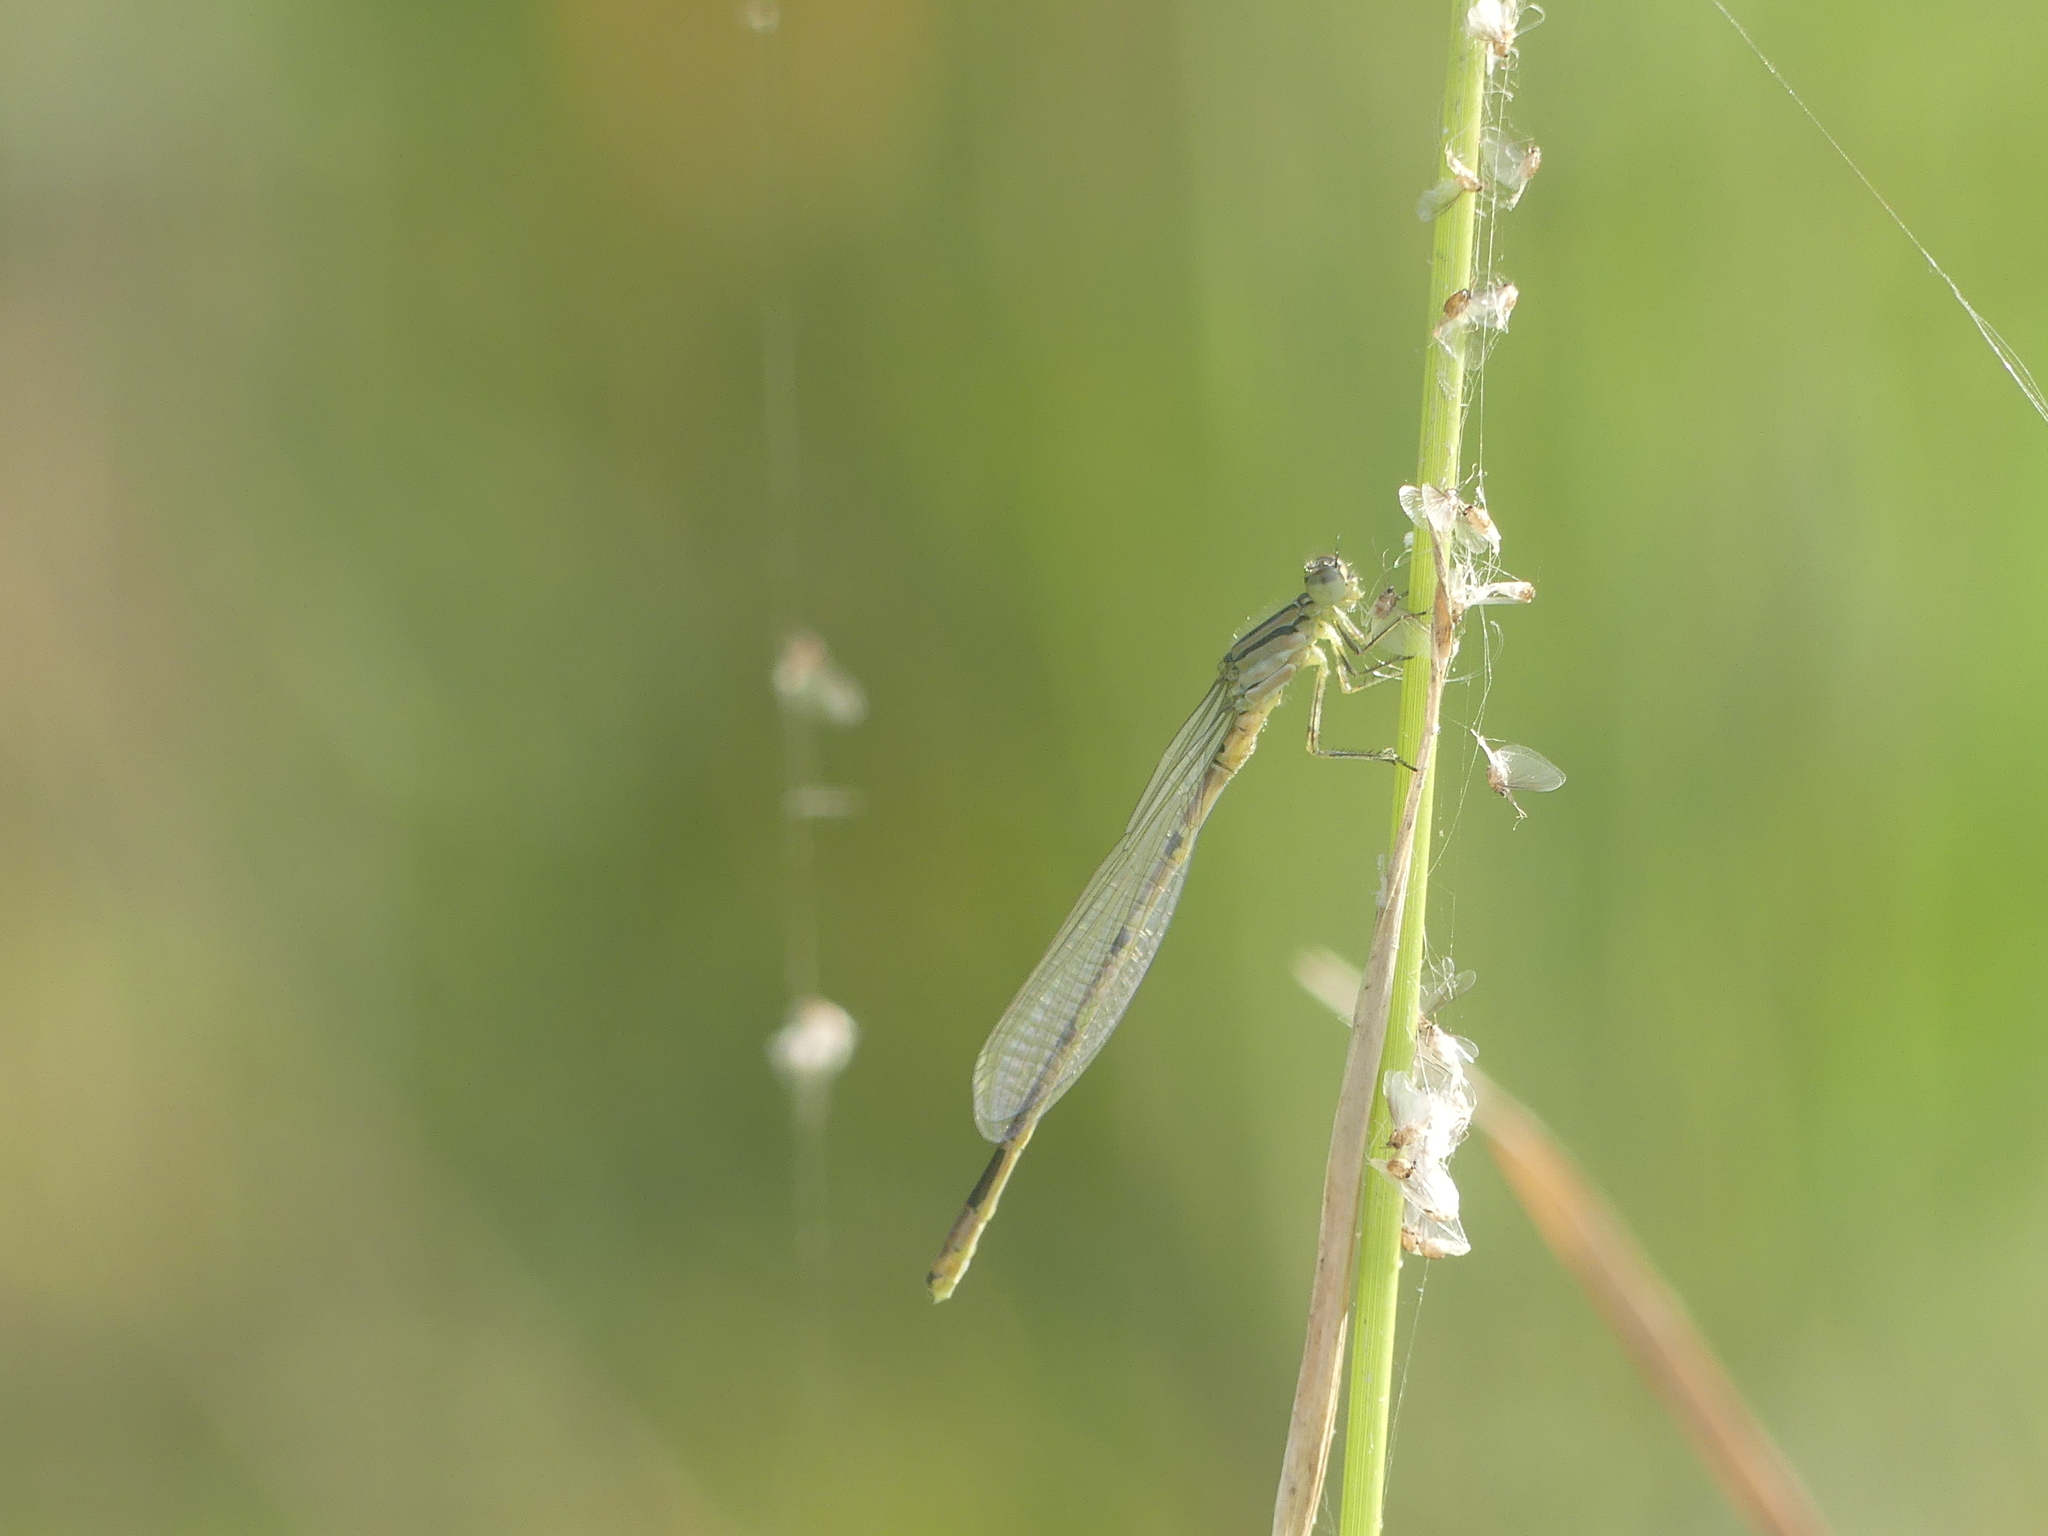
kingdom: Animalia
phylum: Arthropoda
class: Insecta
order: Odonata
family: Coenagrionidae
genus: Enallagma
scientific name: Enallagma cyathigerum
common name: Common blue damselfly
